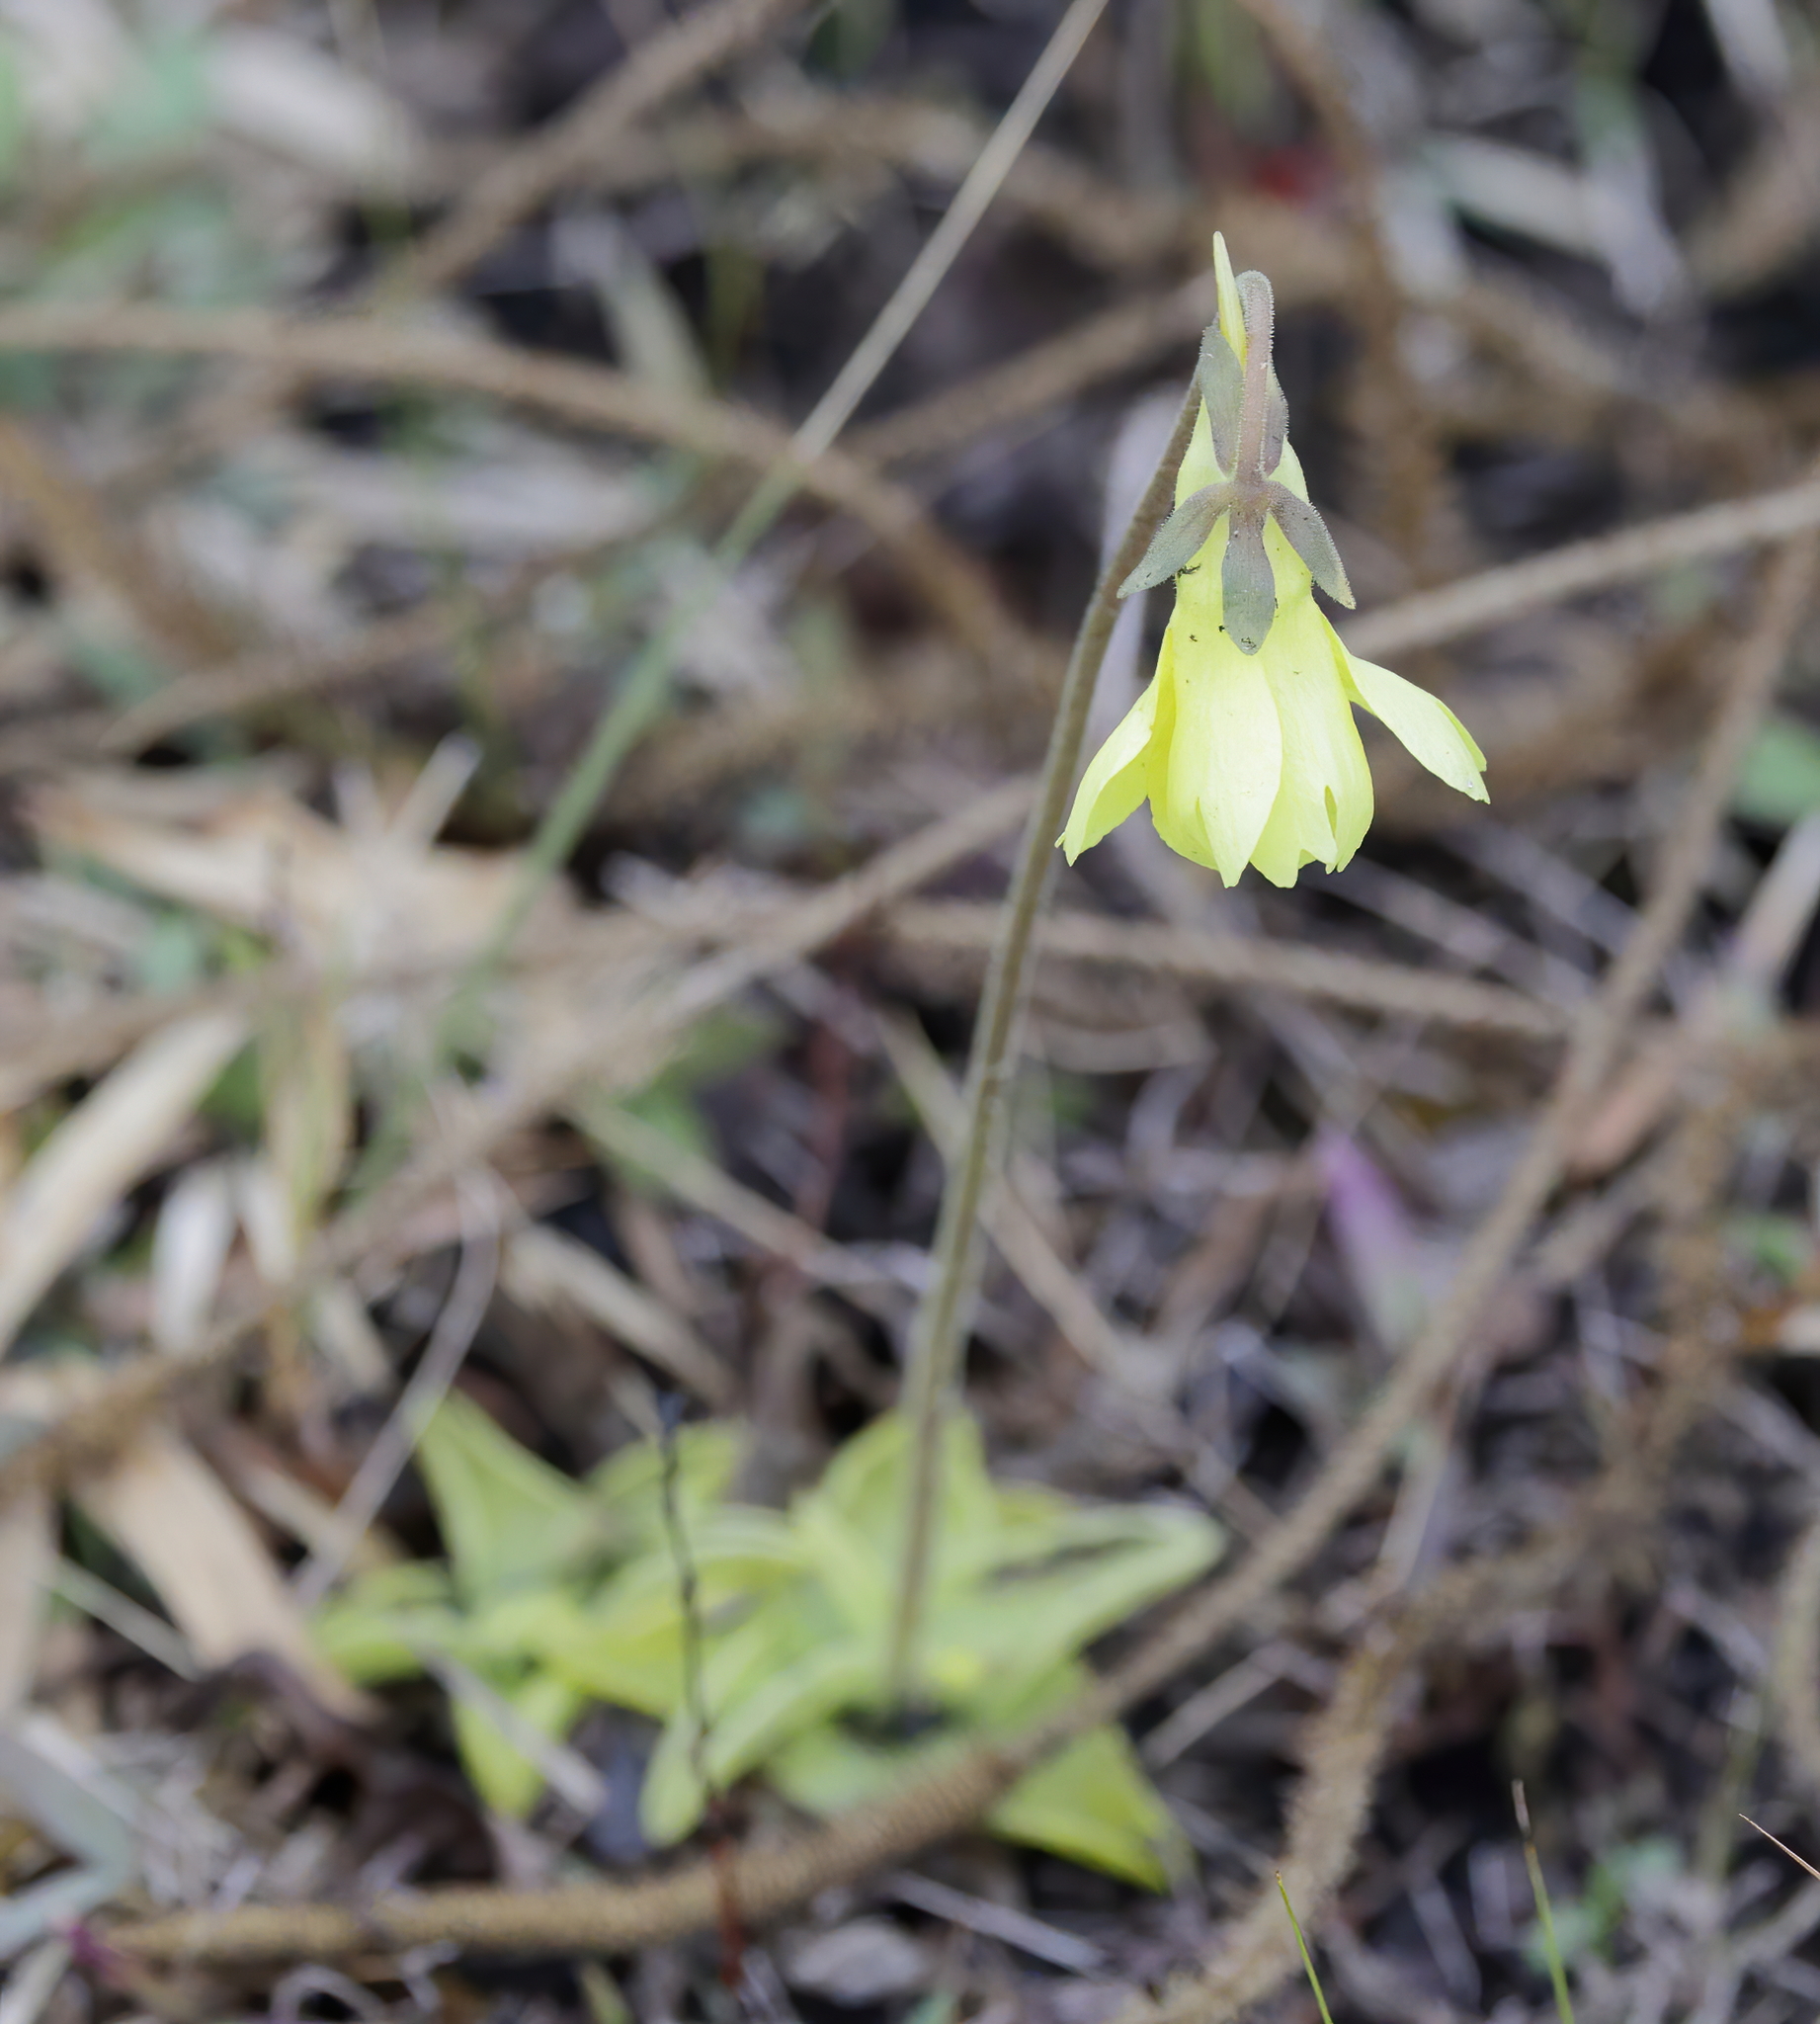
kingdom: Plantae
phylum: Tracheophyta
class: Magnoliopsida
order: Lamiales
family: Lentibulariaceae
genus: Pinguicula
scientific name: Pinguicula lutea
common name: Yellow butterwort
